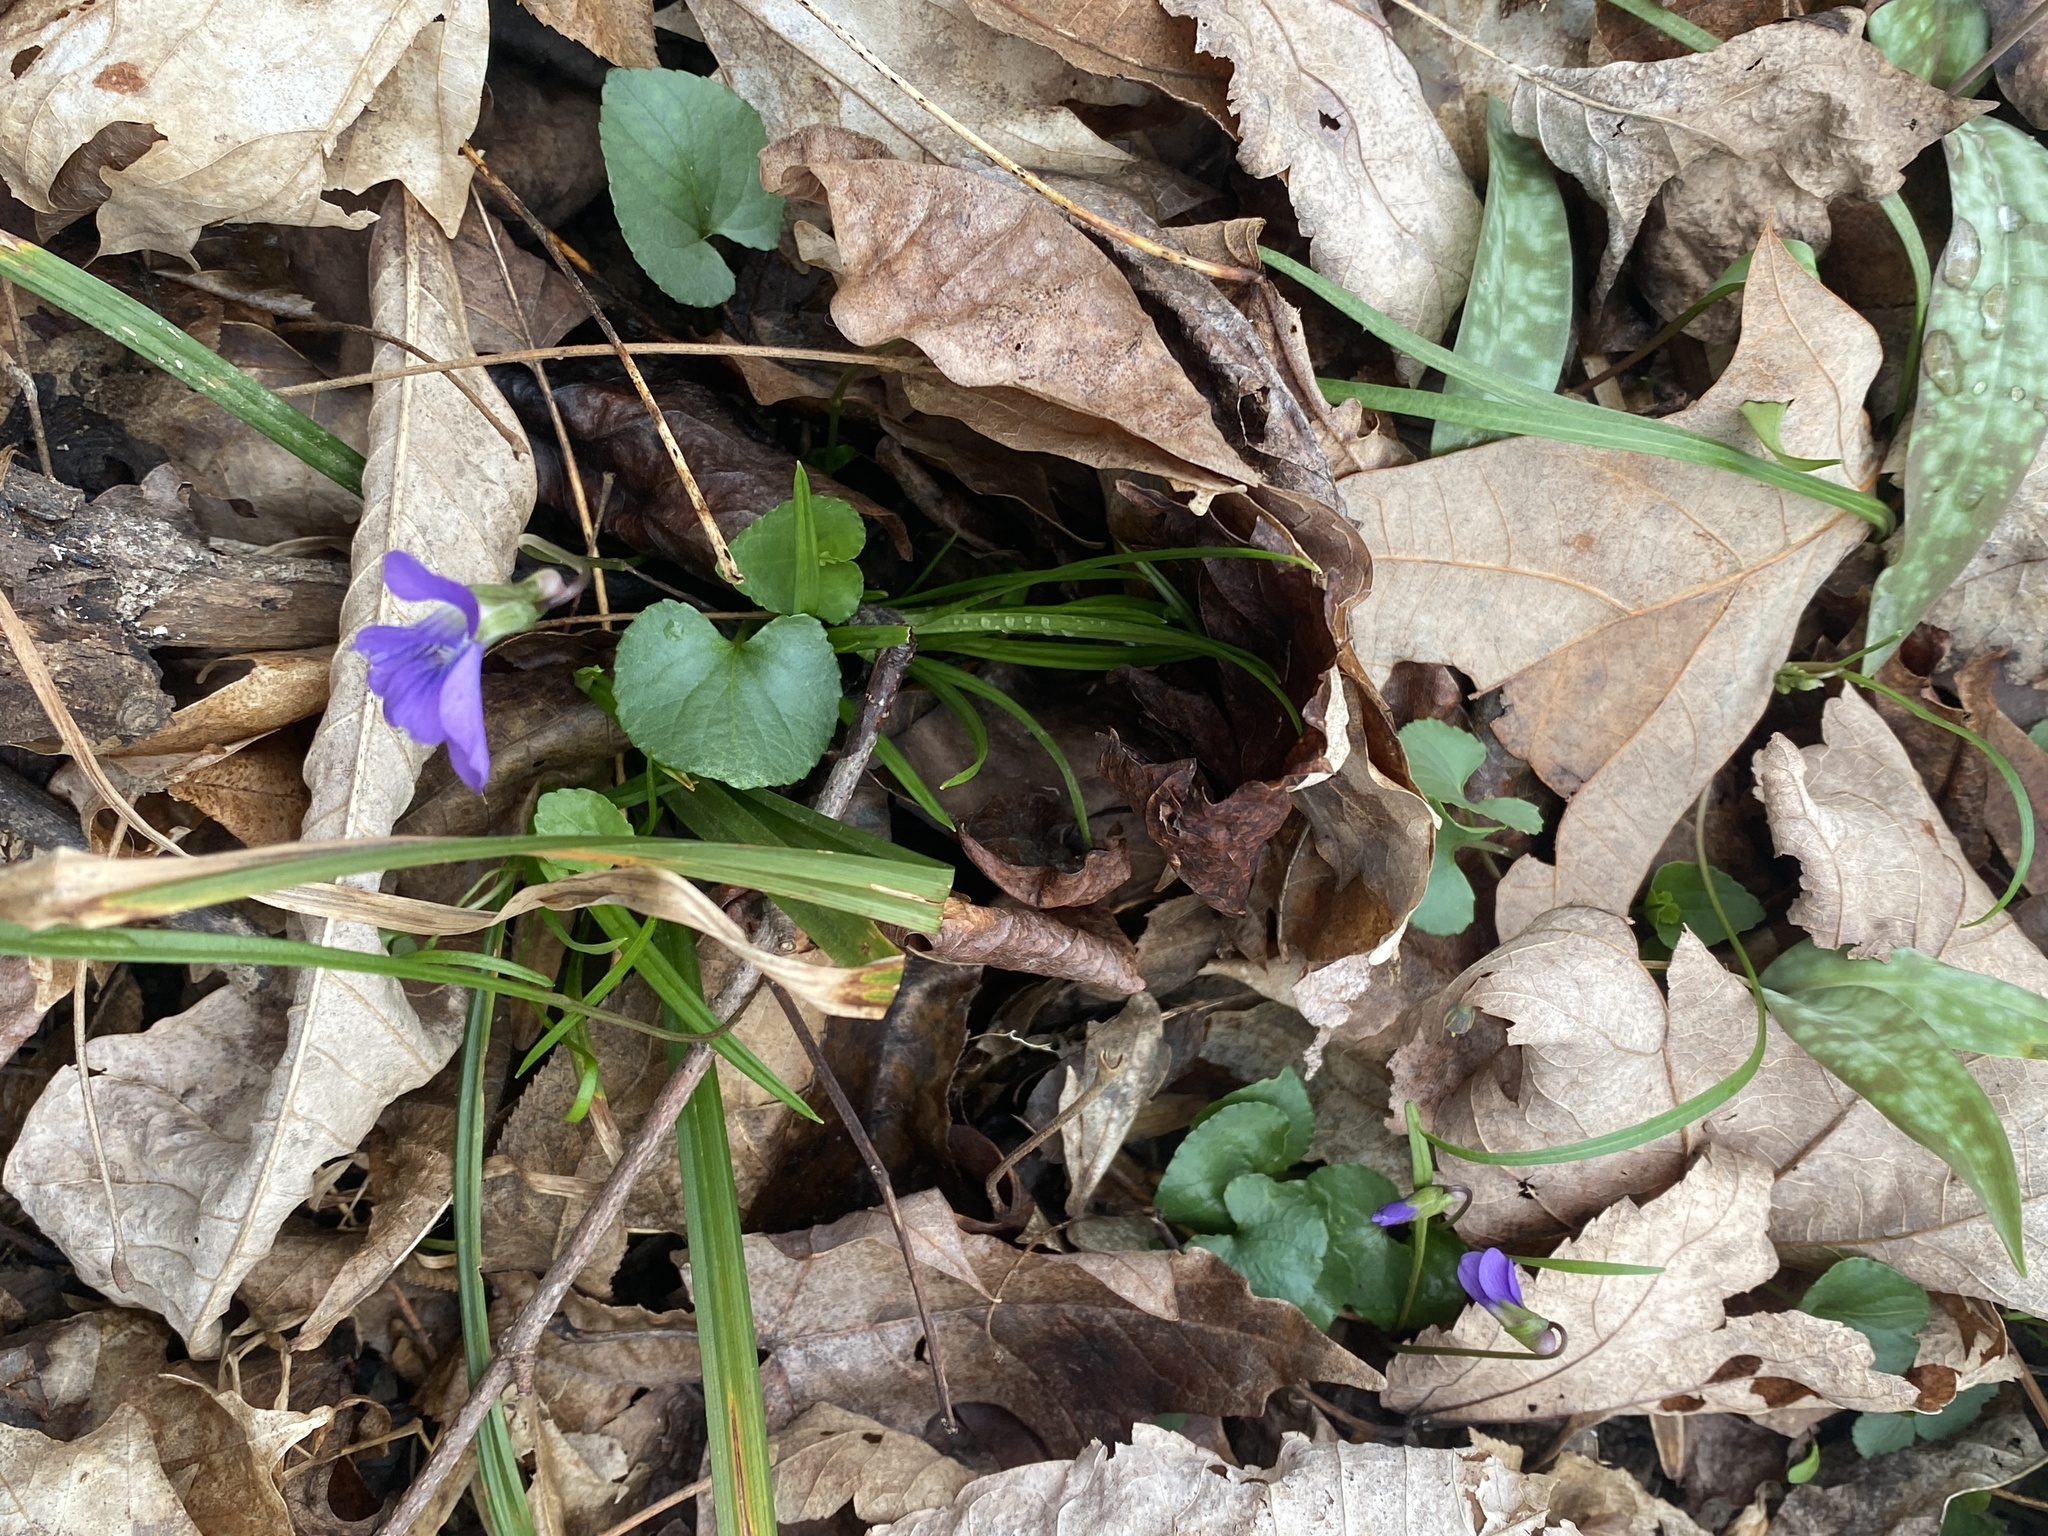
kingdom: Plantae
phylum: Tracheophyta
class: Magnoliopsida
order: Malpighiales
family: Violaceae
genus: Viola
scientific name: Viola sororia
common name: Dooryard violet
